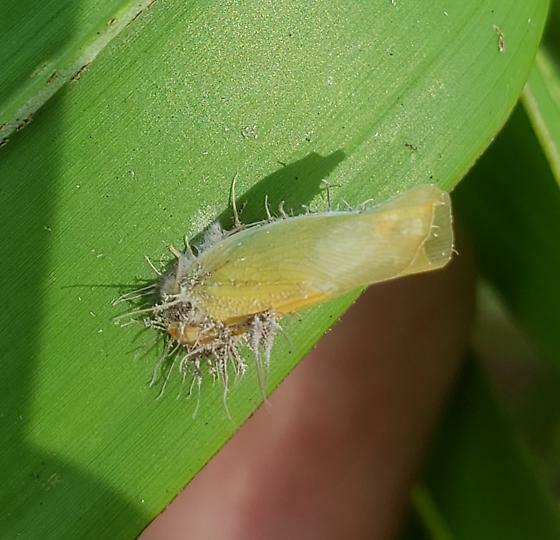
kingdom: Fungi
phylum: Ascomycota
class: Sordariomycetes
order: Hypocreales
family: Ophiocordycipitaceae
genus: Hirsutella
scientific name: Hirsutella citriformis
